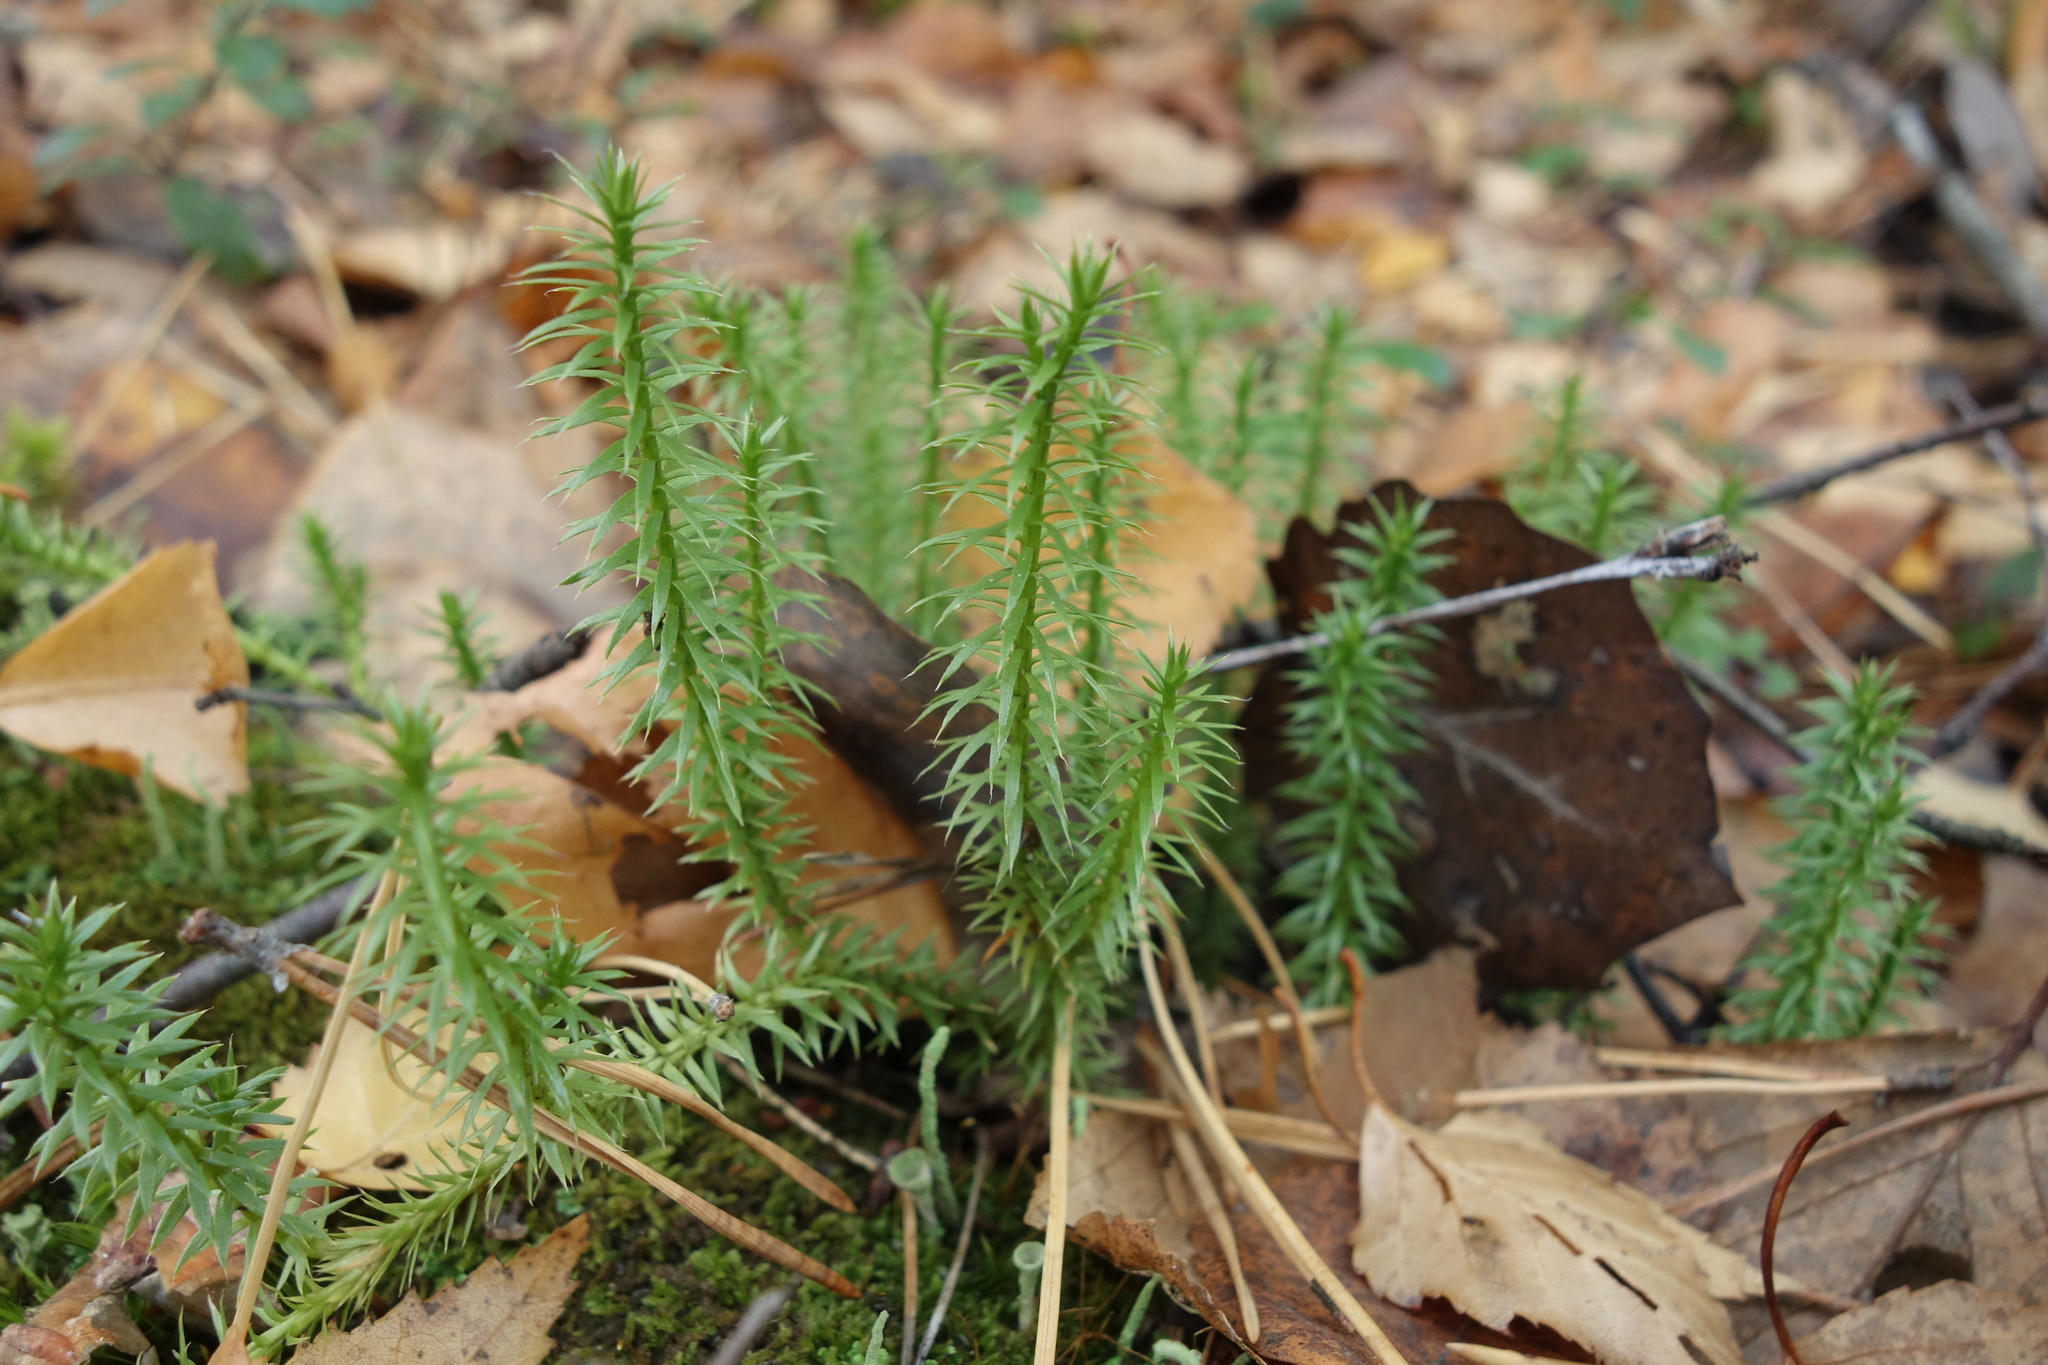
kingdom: Plantae
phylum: Tracheophyta
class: Lycopodiopsida
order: Lycopodiales
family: Lycopodiaceae
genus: Spinulum
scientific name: Spinulum annotinum
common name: Interrupted club-moss
